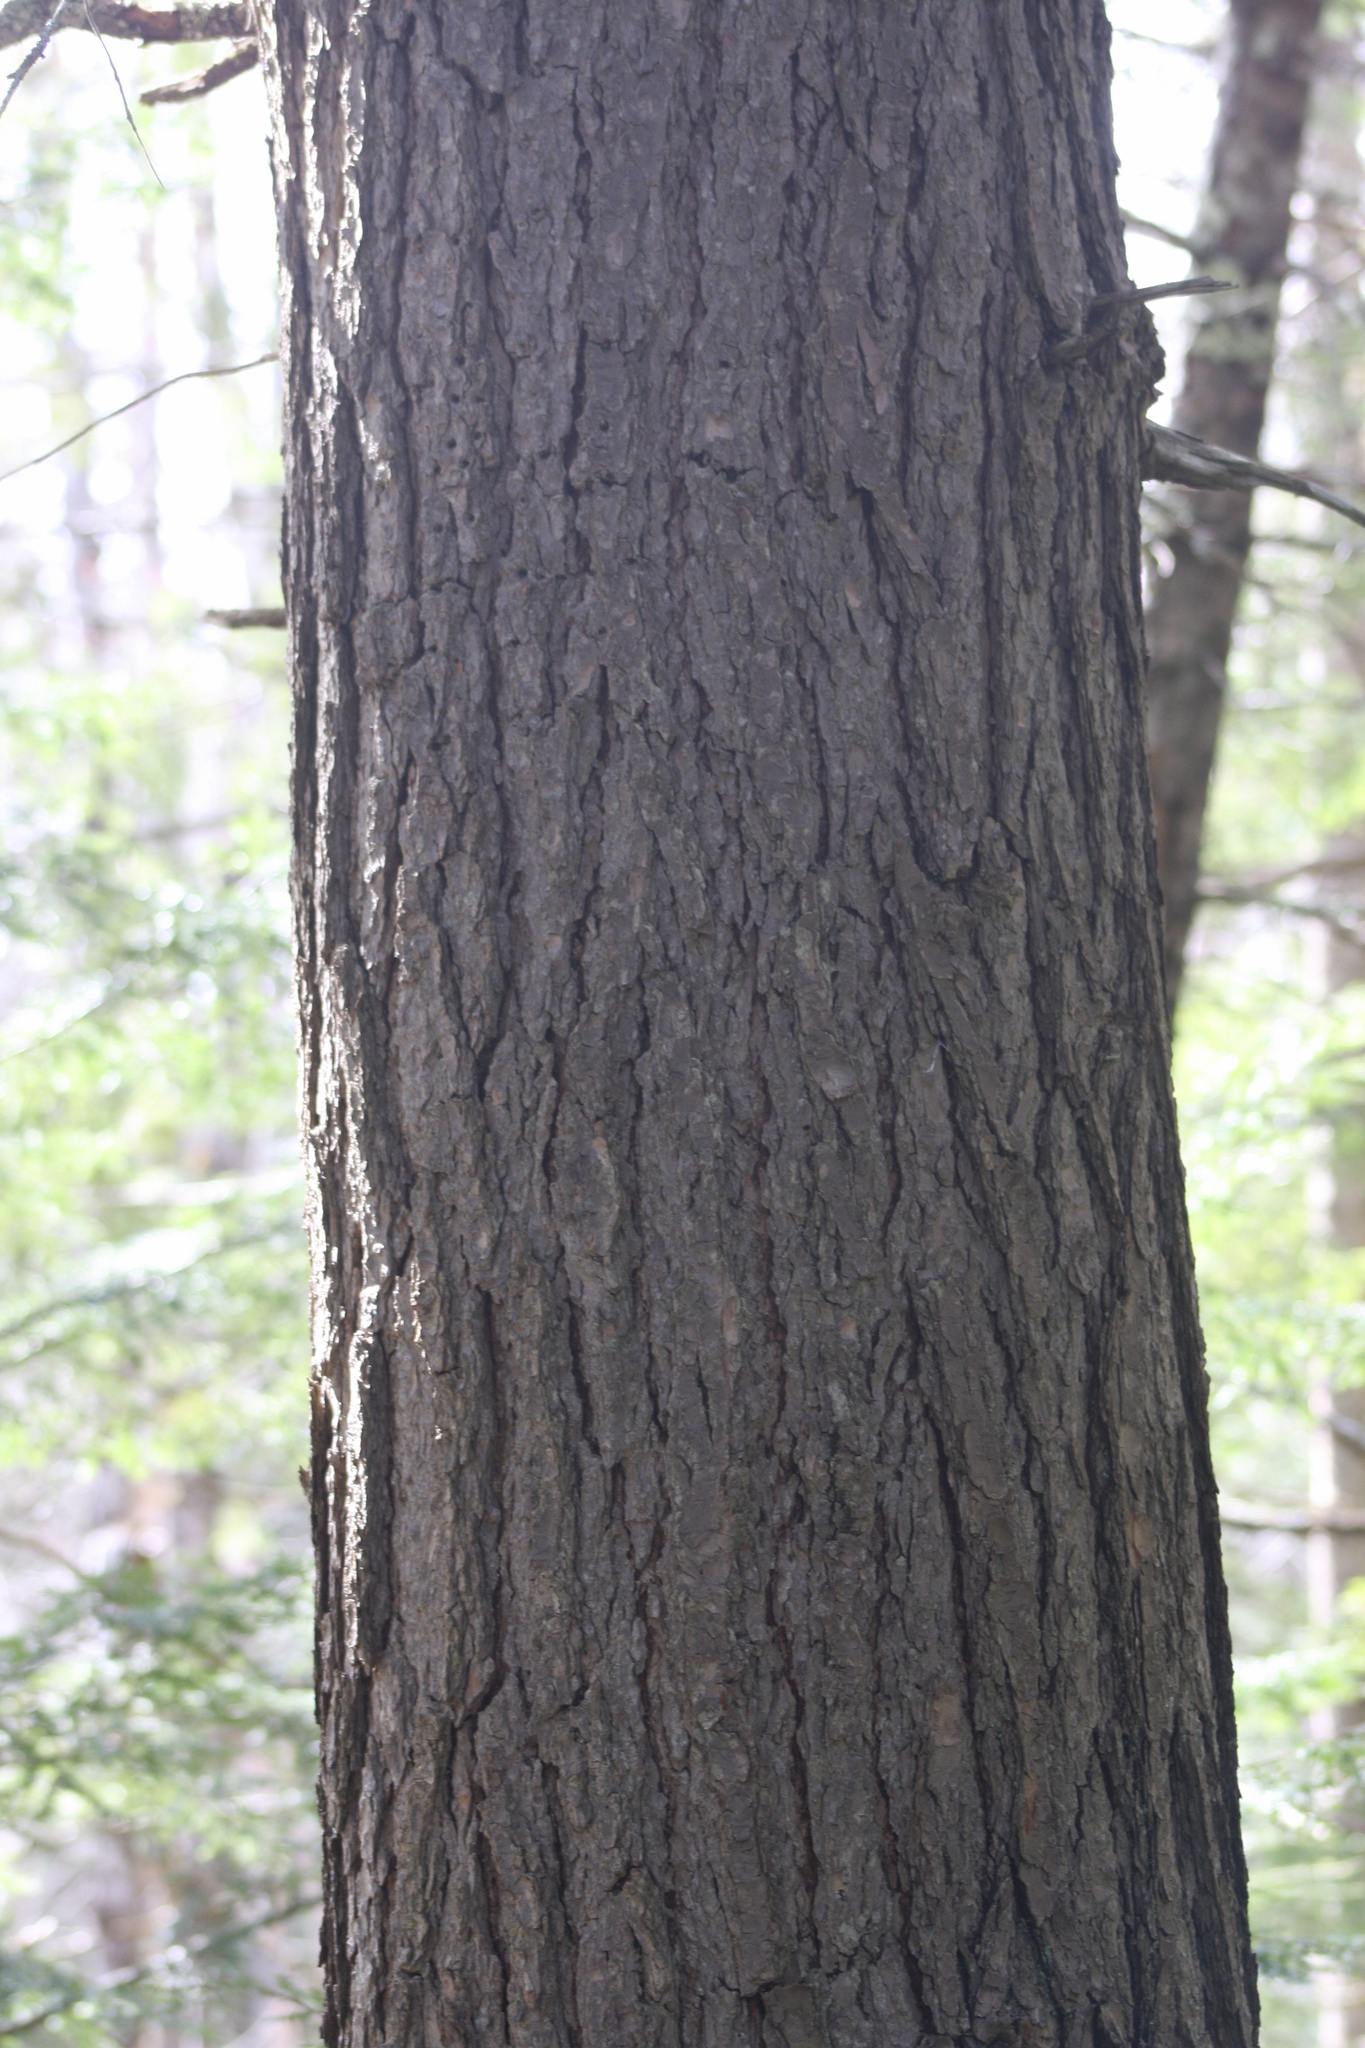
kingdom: Plantae
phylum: Tracheophyta
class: Pinopsida
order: Pinales
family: Pinaceae
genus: Tsuga
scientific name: Tsuga canadensis
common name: Eastern hemlock
